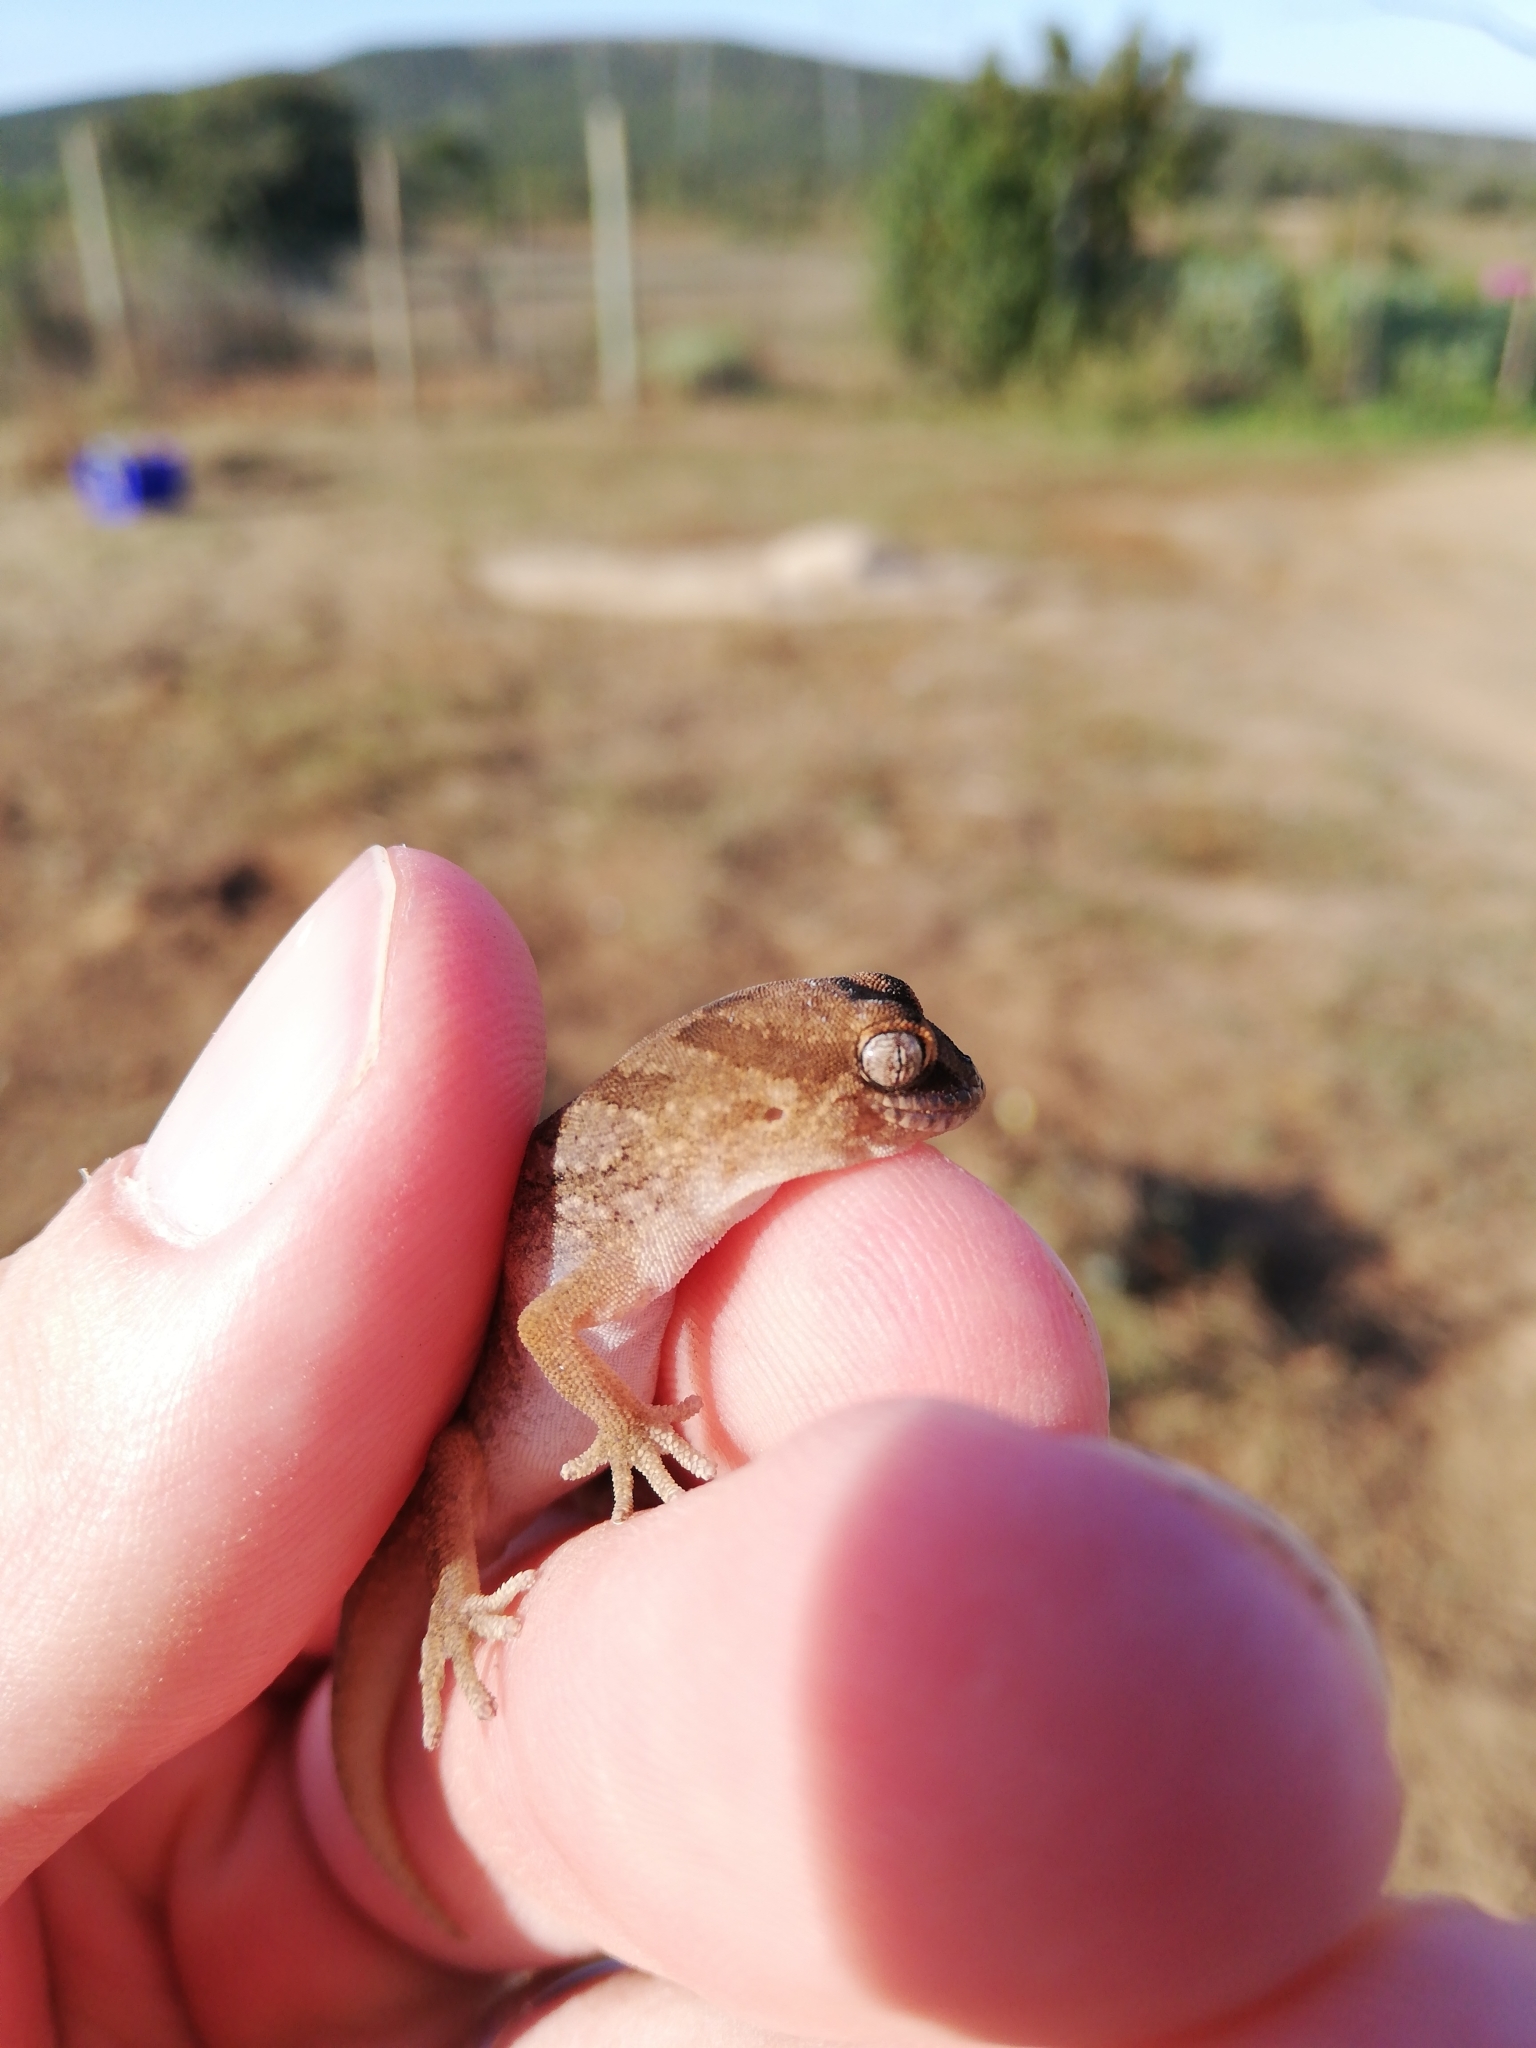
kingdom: Animalia
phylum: Chordata
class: Squamata
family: Gekkonidae
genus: Pachydactylus
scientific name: Pachydactylus mariquensis
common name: Common banded gecko
